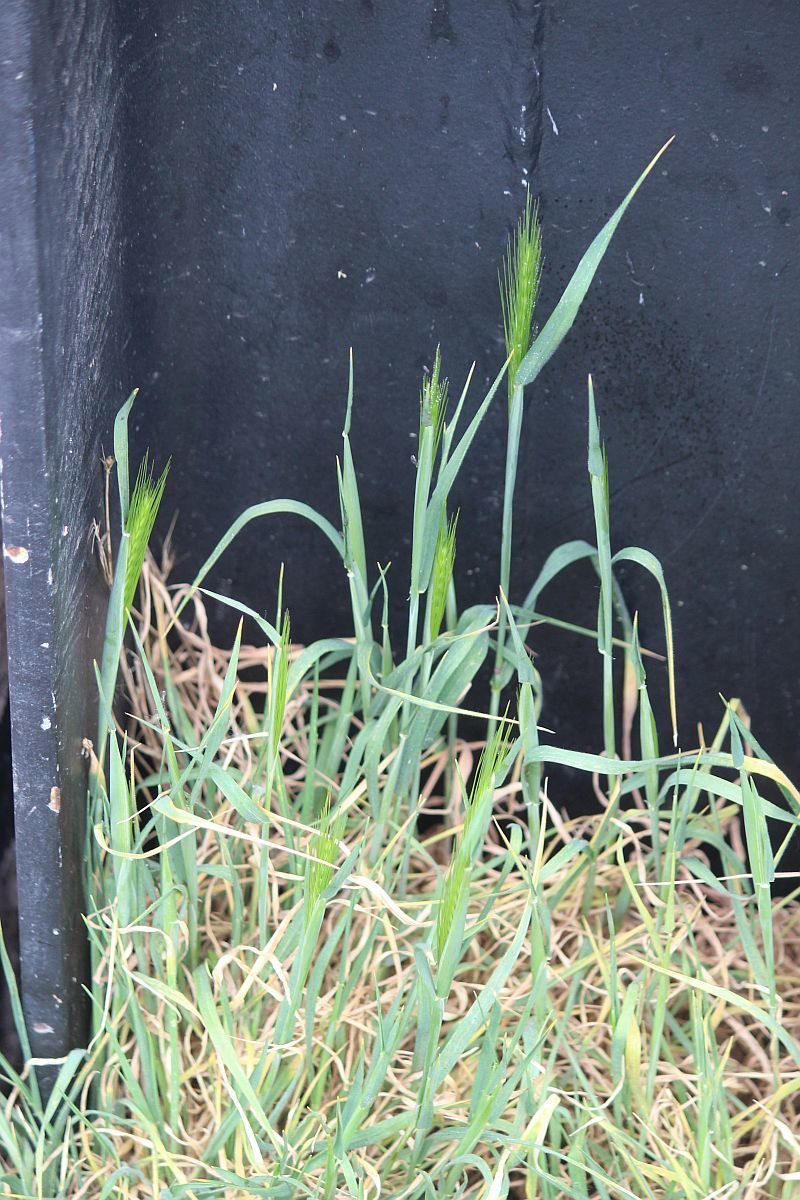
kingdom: Plantae
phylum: Tracheophyta
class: Liliopsida
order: Poales
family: Poaceae
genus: Hordeum
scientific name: Hordeum murinum
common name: Wall barley
